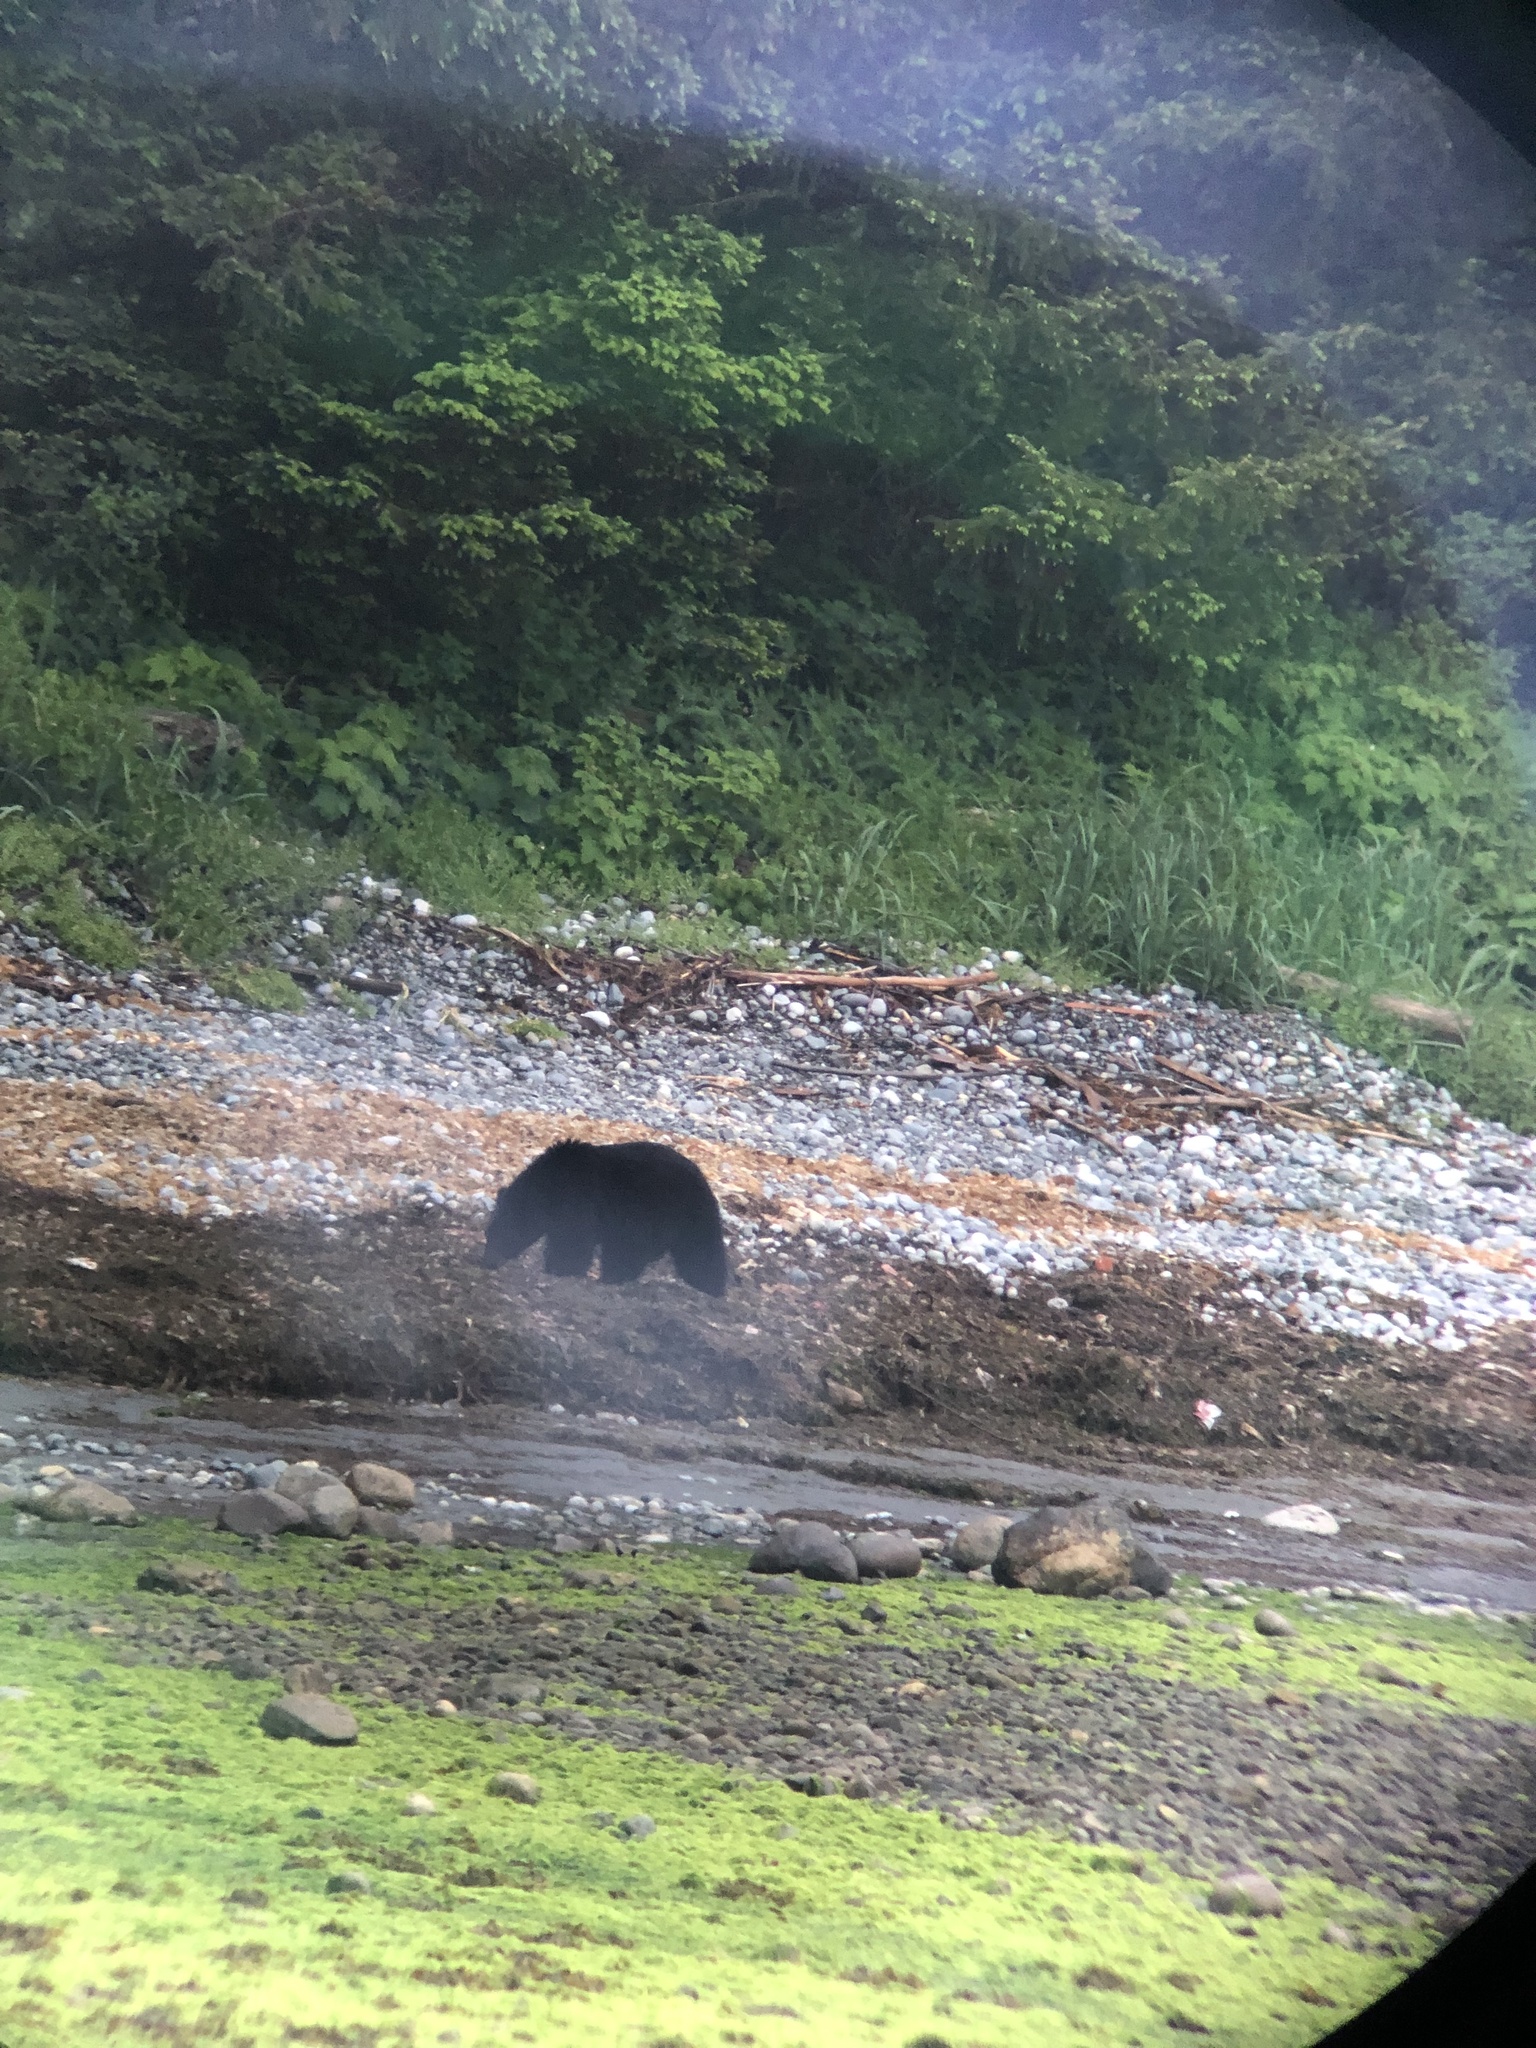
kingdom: Animalia
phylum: Chordata
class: Mammalia
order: Carnivora
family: Ursidae
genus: Ursus
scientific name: Ursus americanus
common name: American black bear
